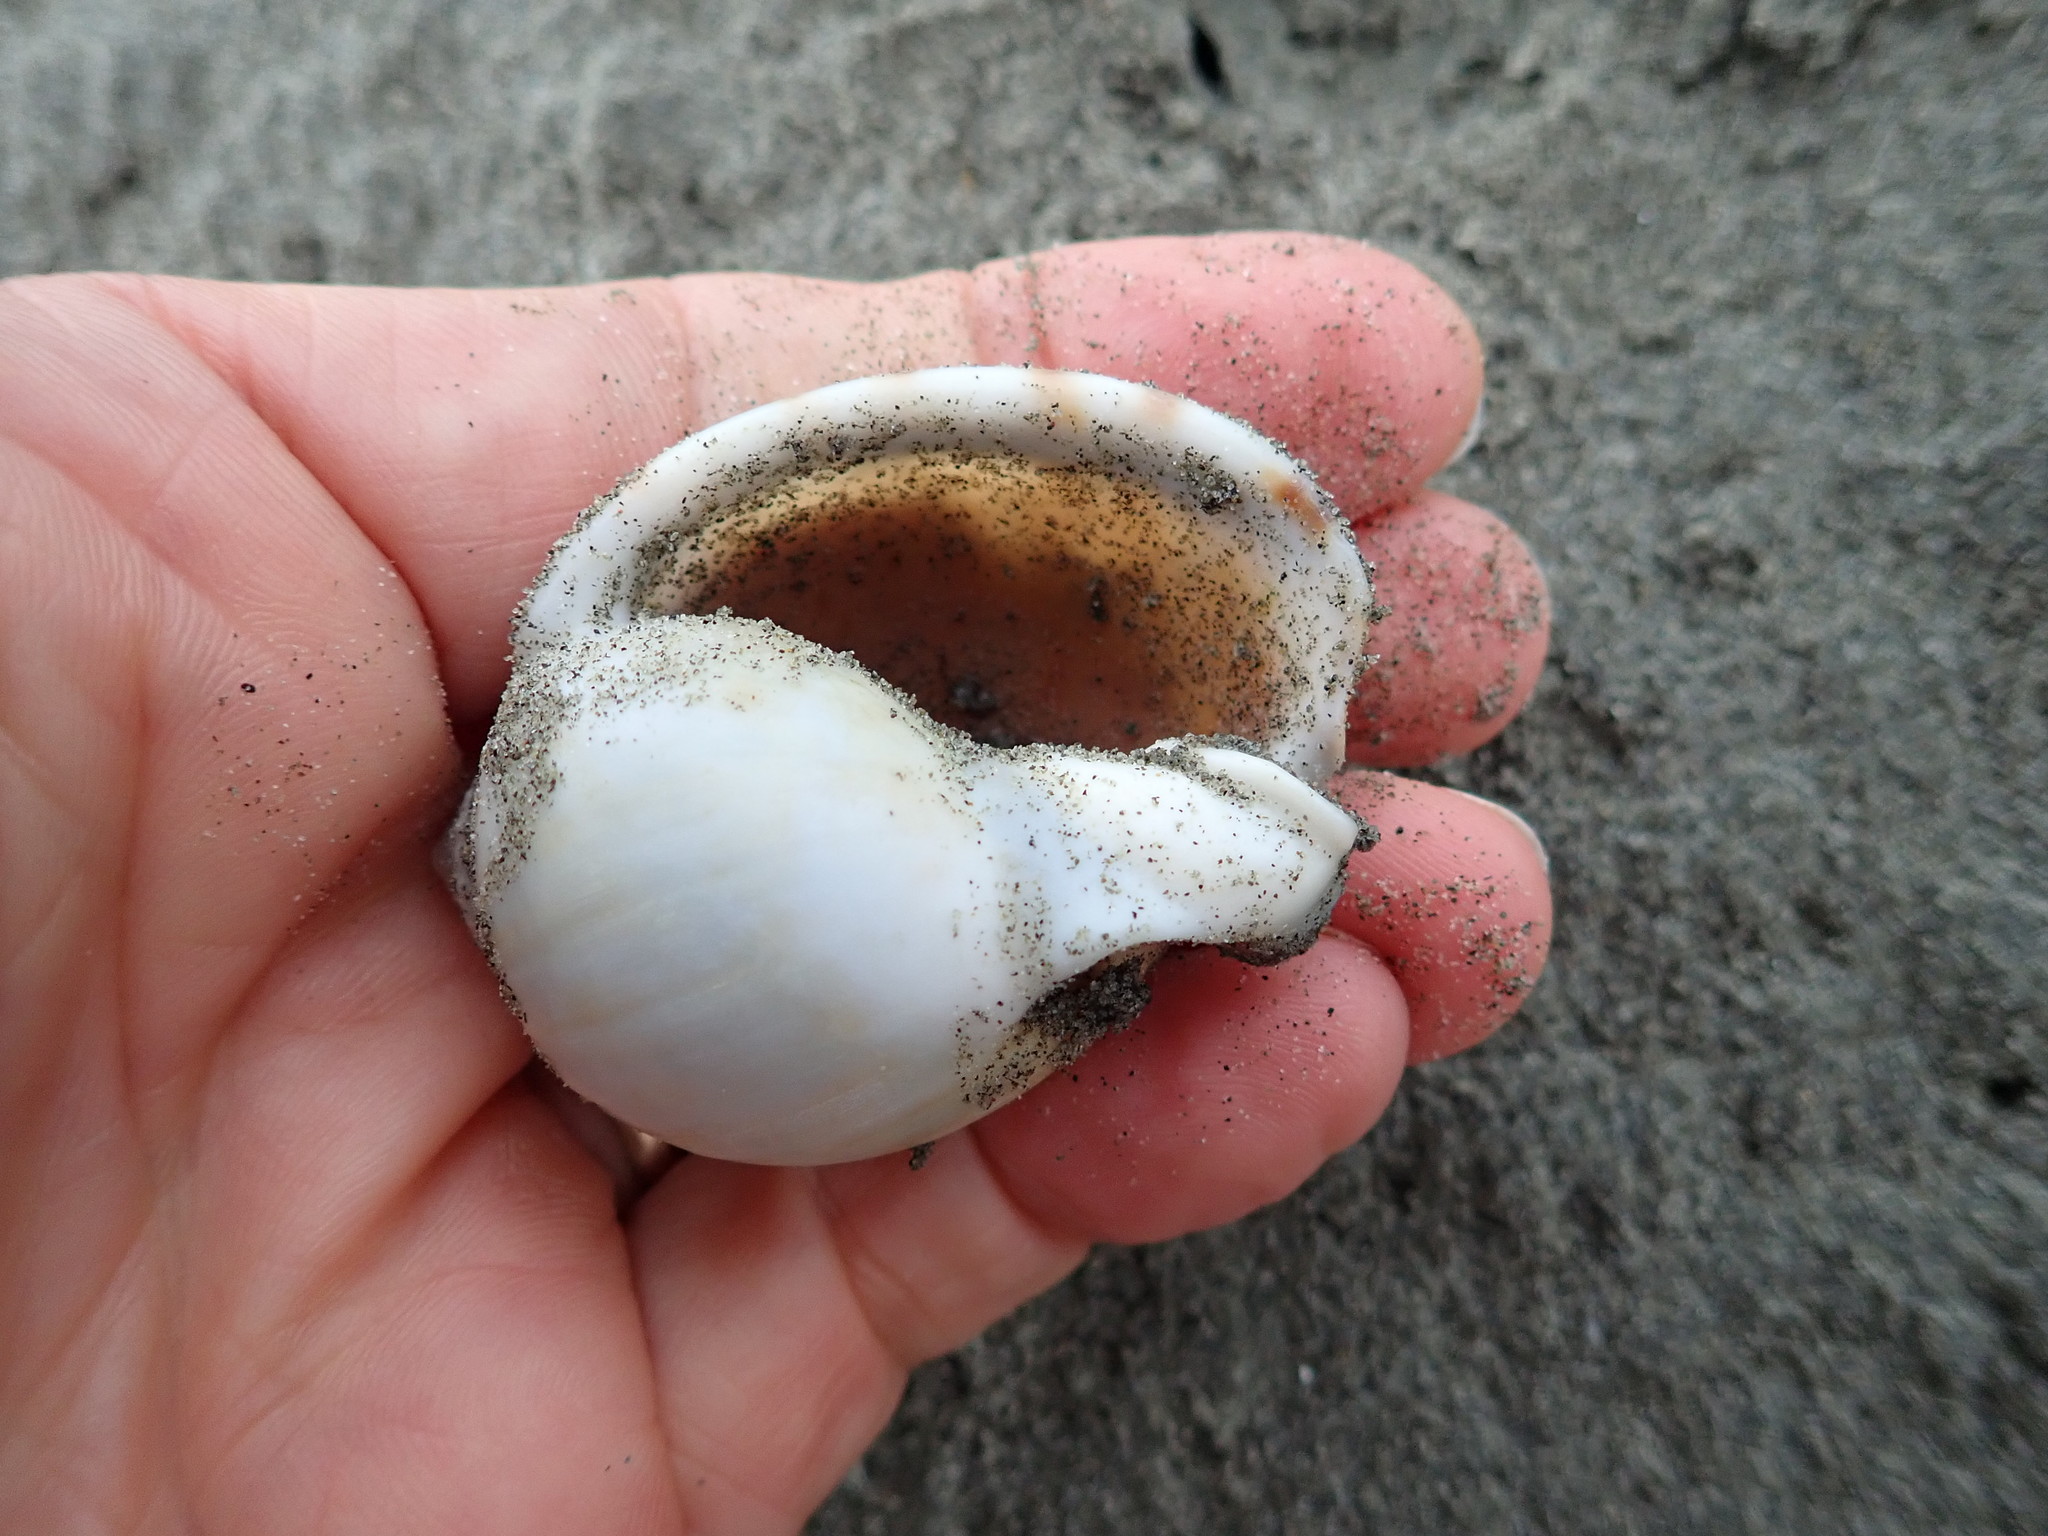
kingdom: Animalia
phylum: Mollusca
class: Gastropoda
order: Littorinimorpha
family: Cassidae
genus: Semicassis
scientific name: Semicassis pyrum
